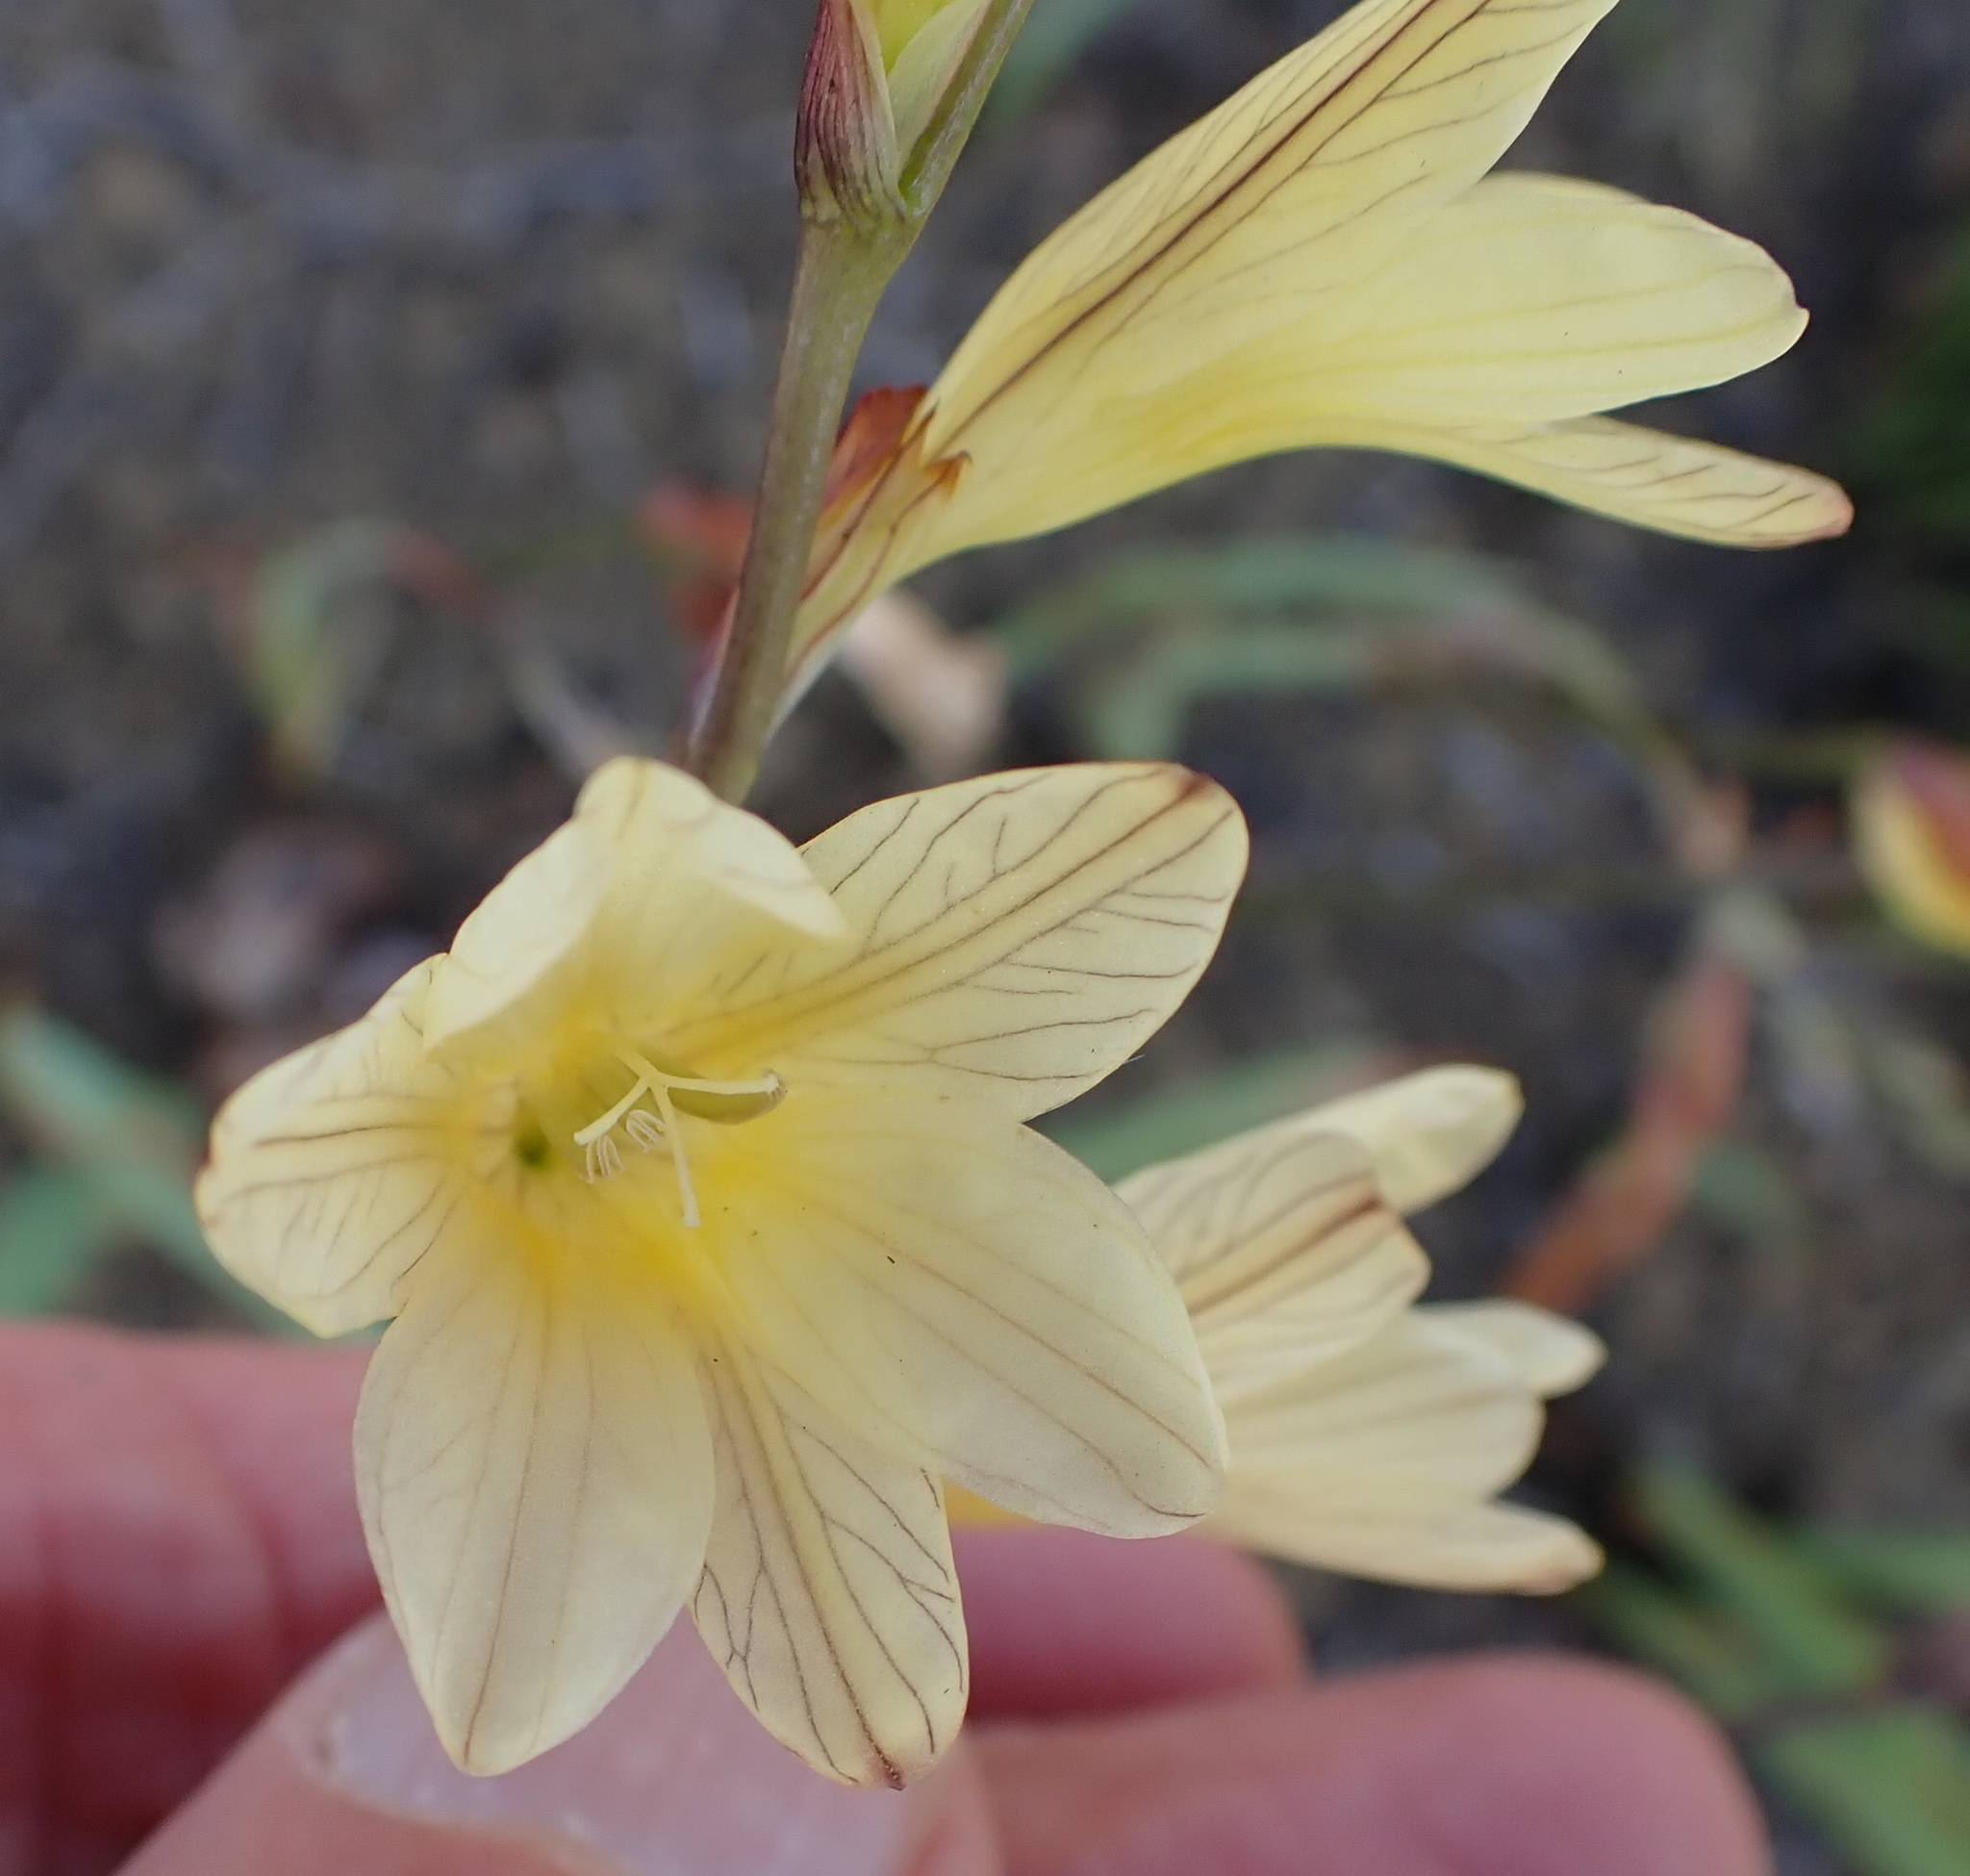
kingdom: Plantae
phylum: Tracheophyta
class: Liliopsida
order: Asparagales
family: Iridaceae
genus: Tritonia
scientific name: Tritonia gladiolaris
